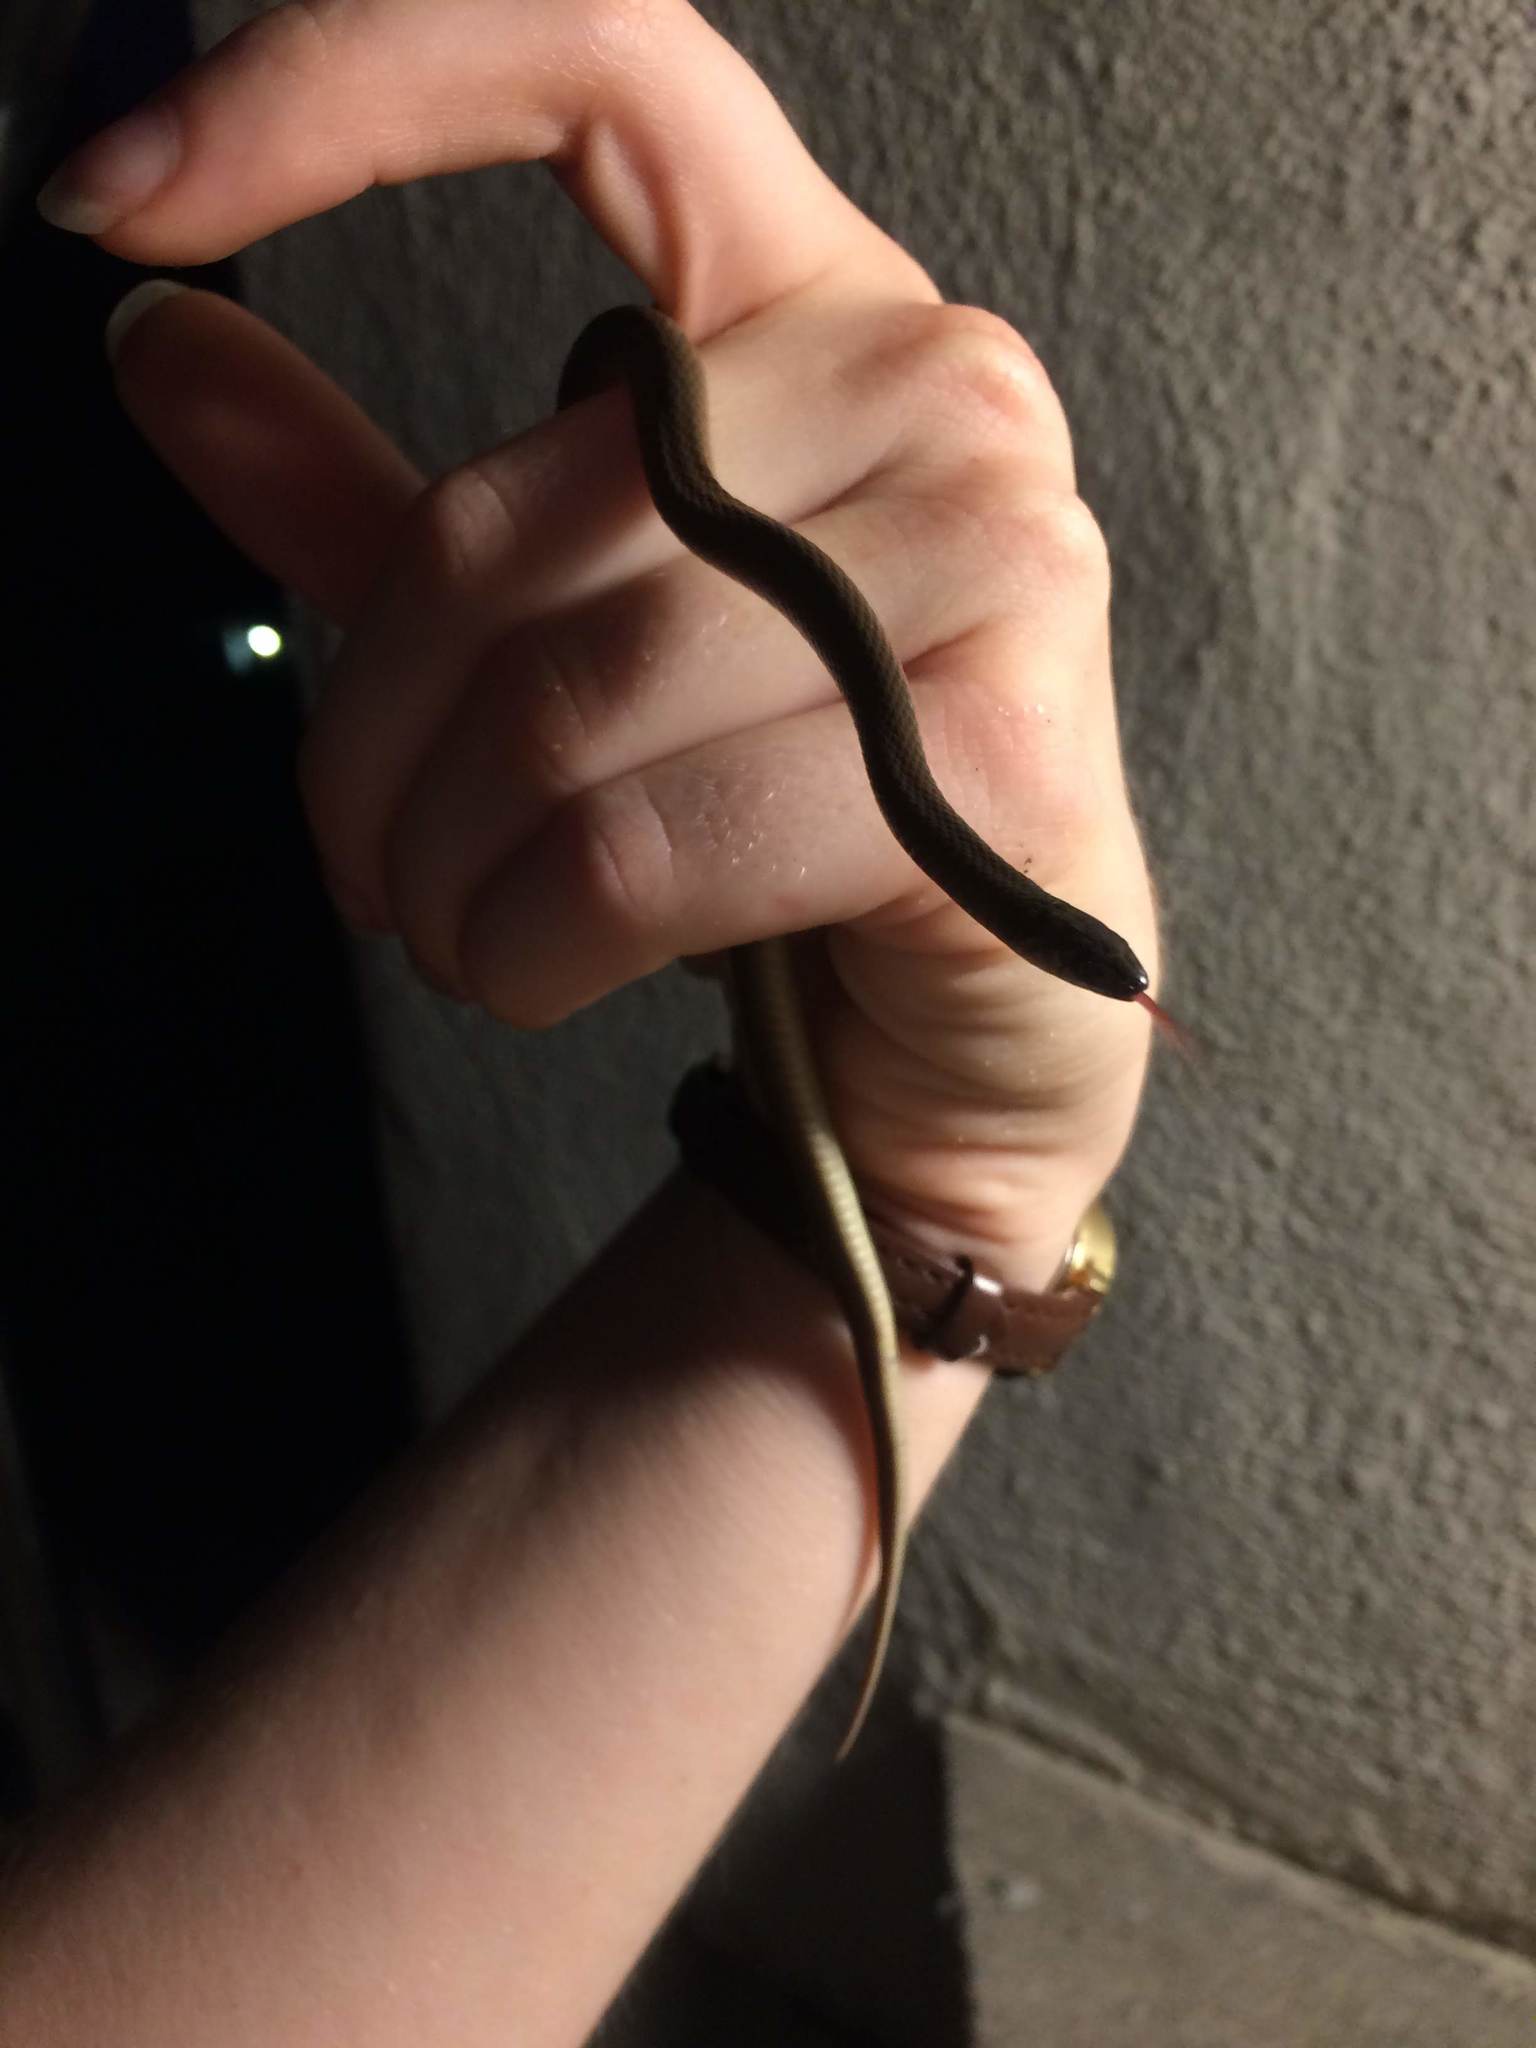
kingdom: Animalia
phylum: Chordata
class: Squamata
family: Colubridae
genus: Haldea
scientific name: Haldea striatula
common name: Rough earth snake
